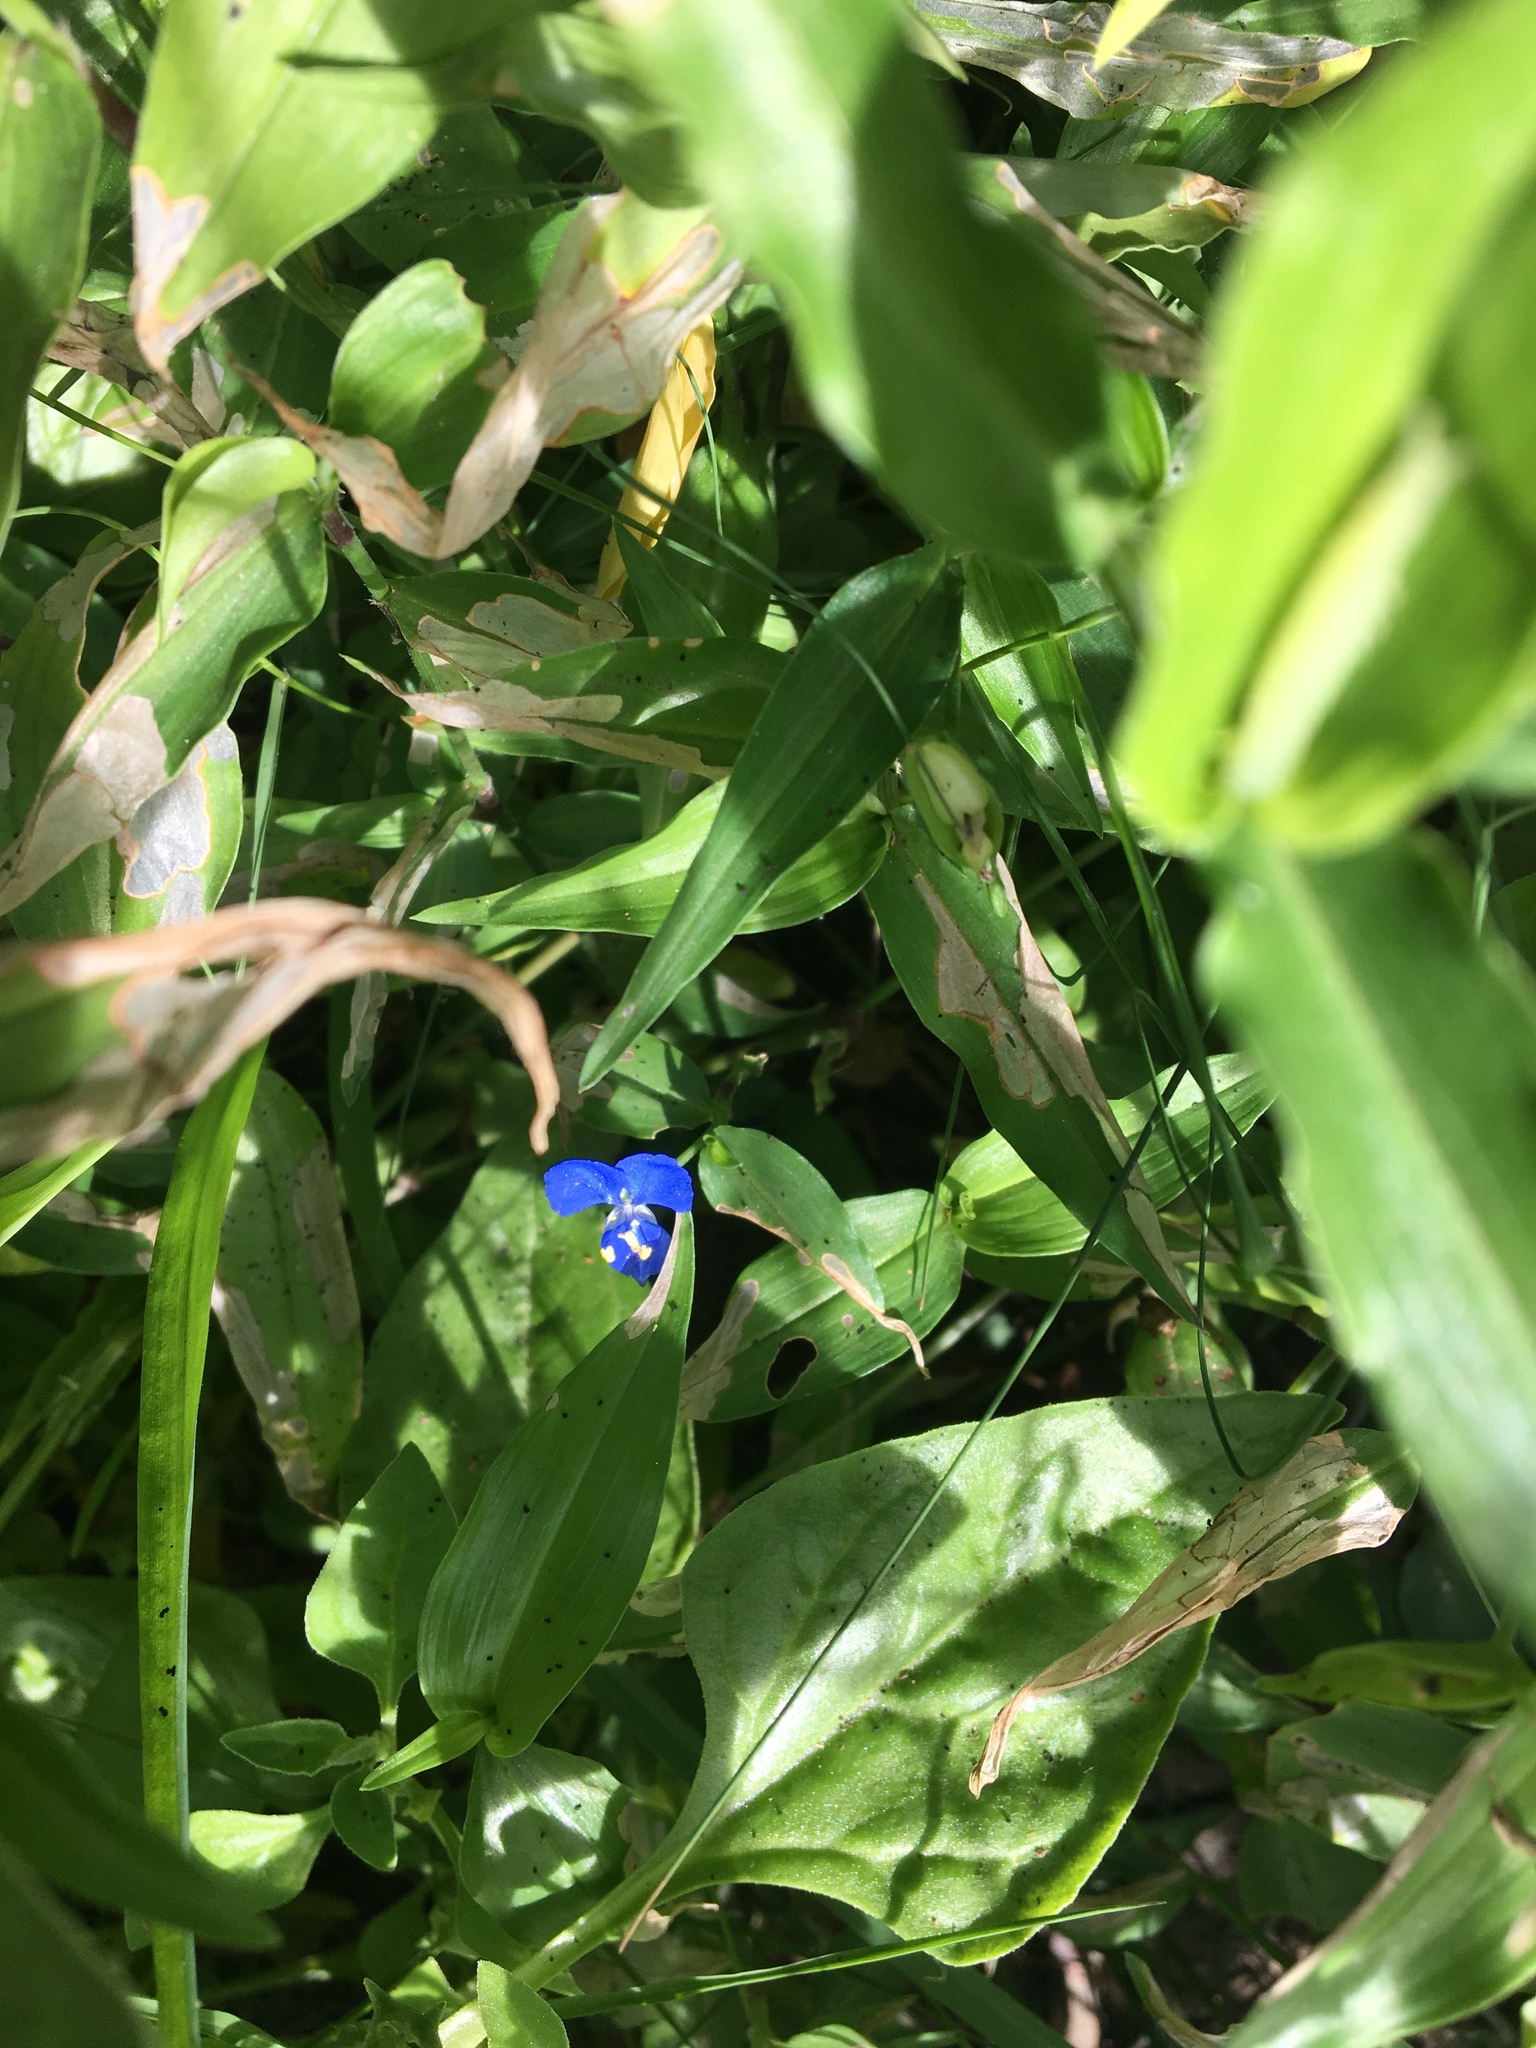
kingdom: Plantae
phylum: Tracheophyta
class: Liliopsida
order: Commelinales
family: Commelinaceae
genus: Commelina
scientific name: Commelina cyanea
